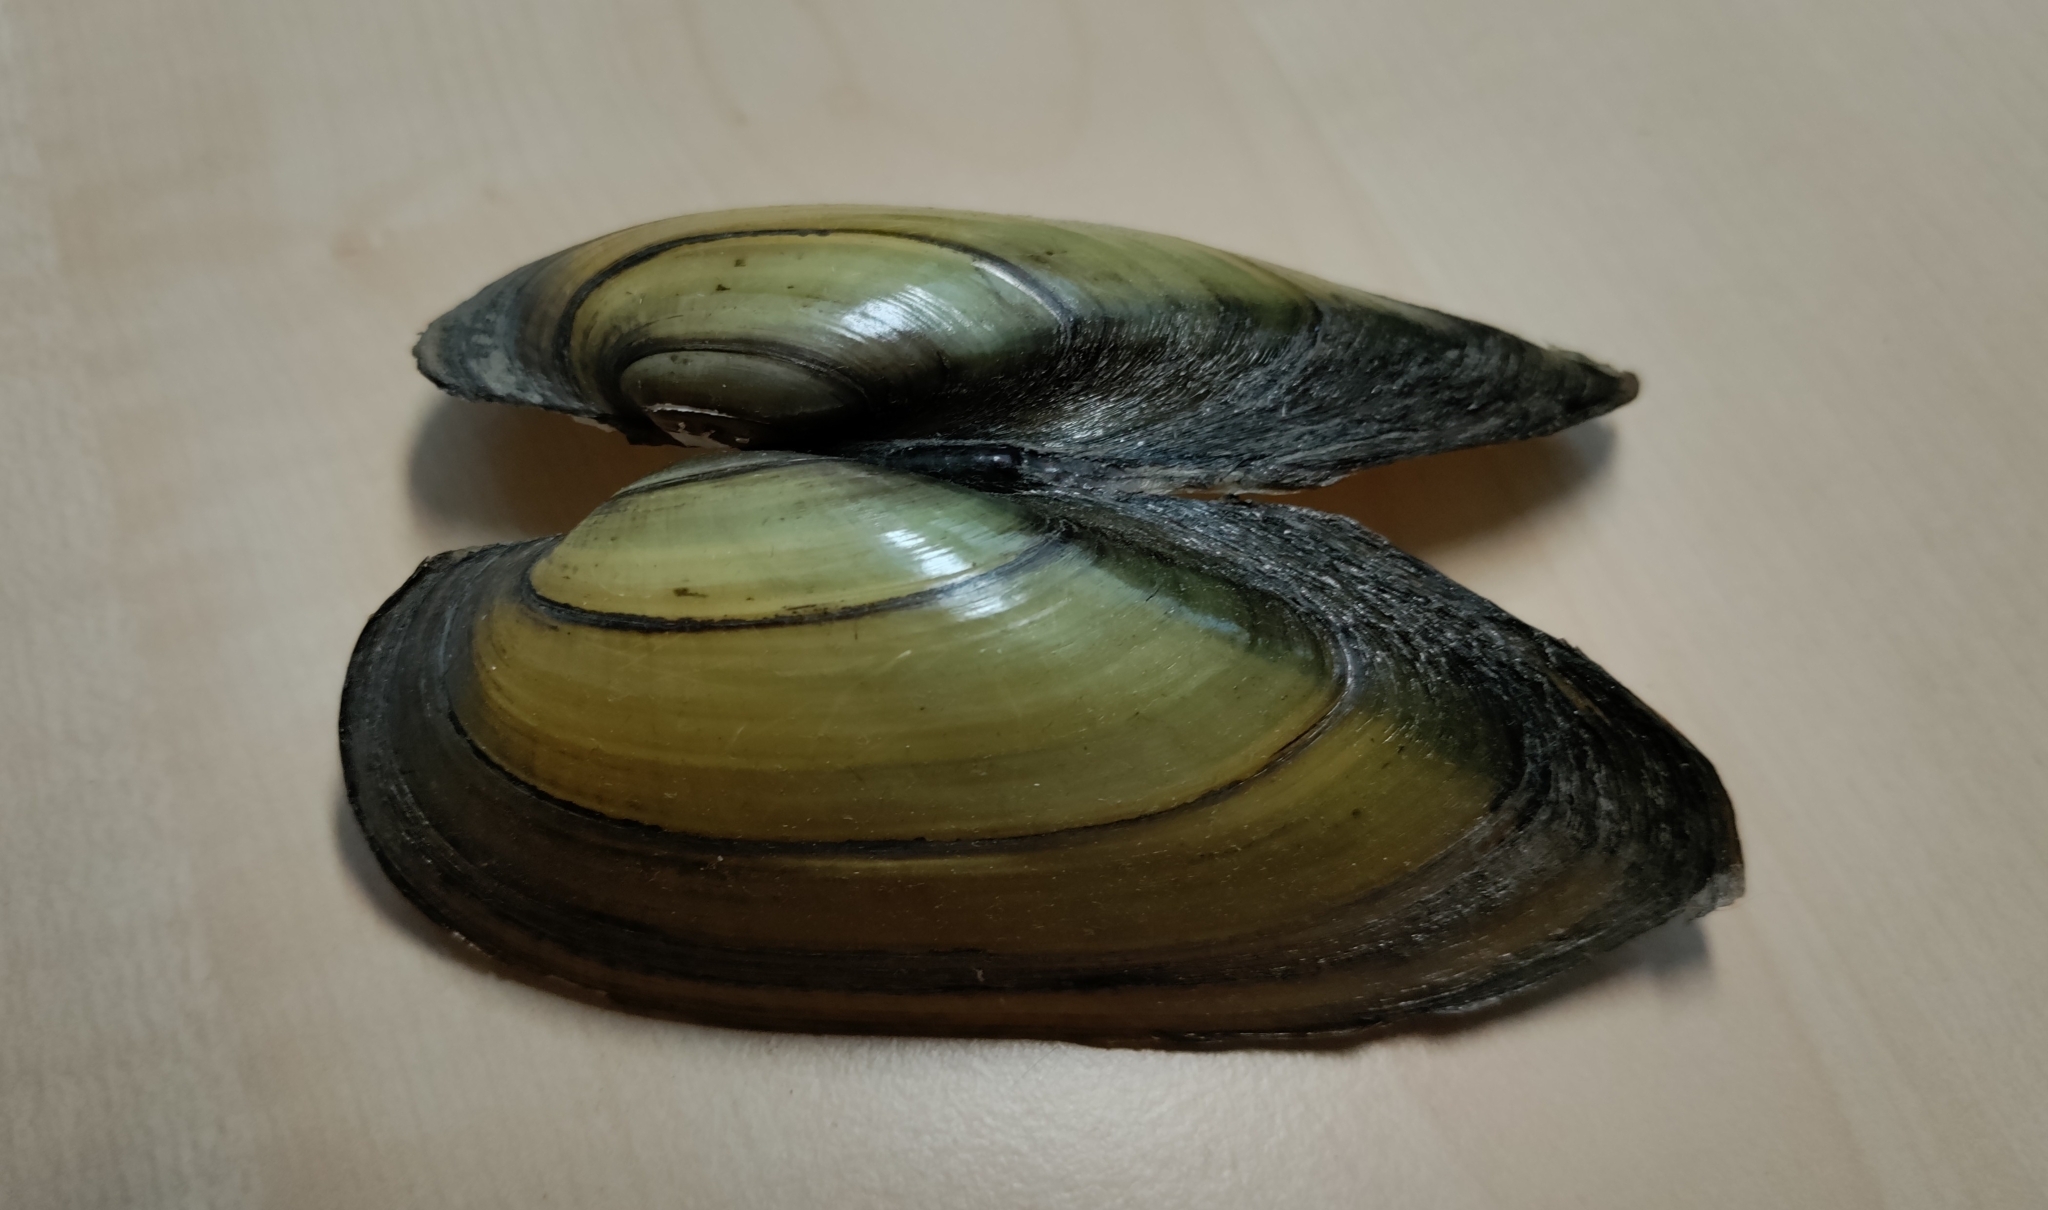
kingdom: Animalia
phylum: Mollusca
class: Bivalvia
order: Unionida
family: Unionidae
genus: Unio
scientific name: Unio pictorum
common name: Painter's mussel
